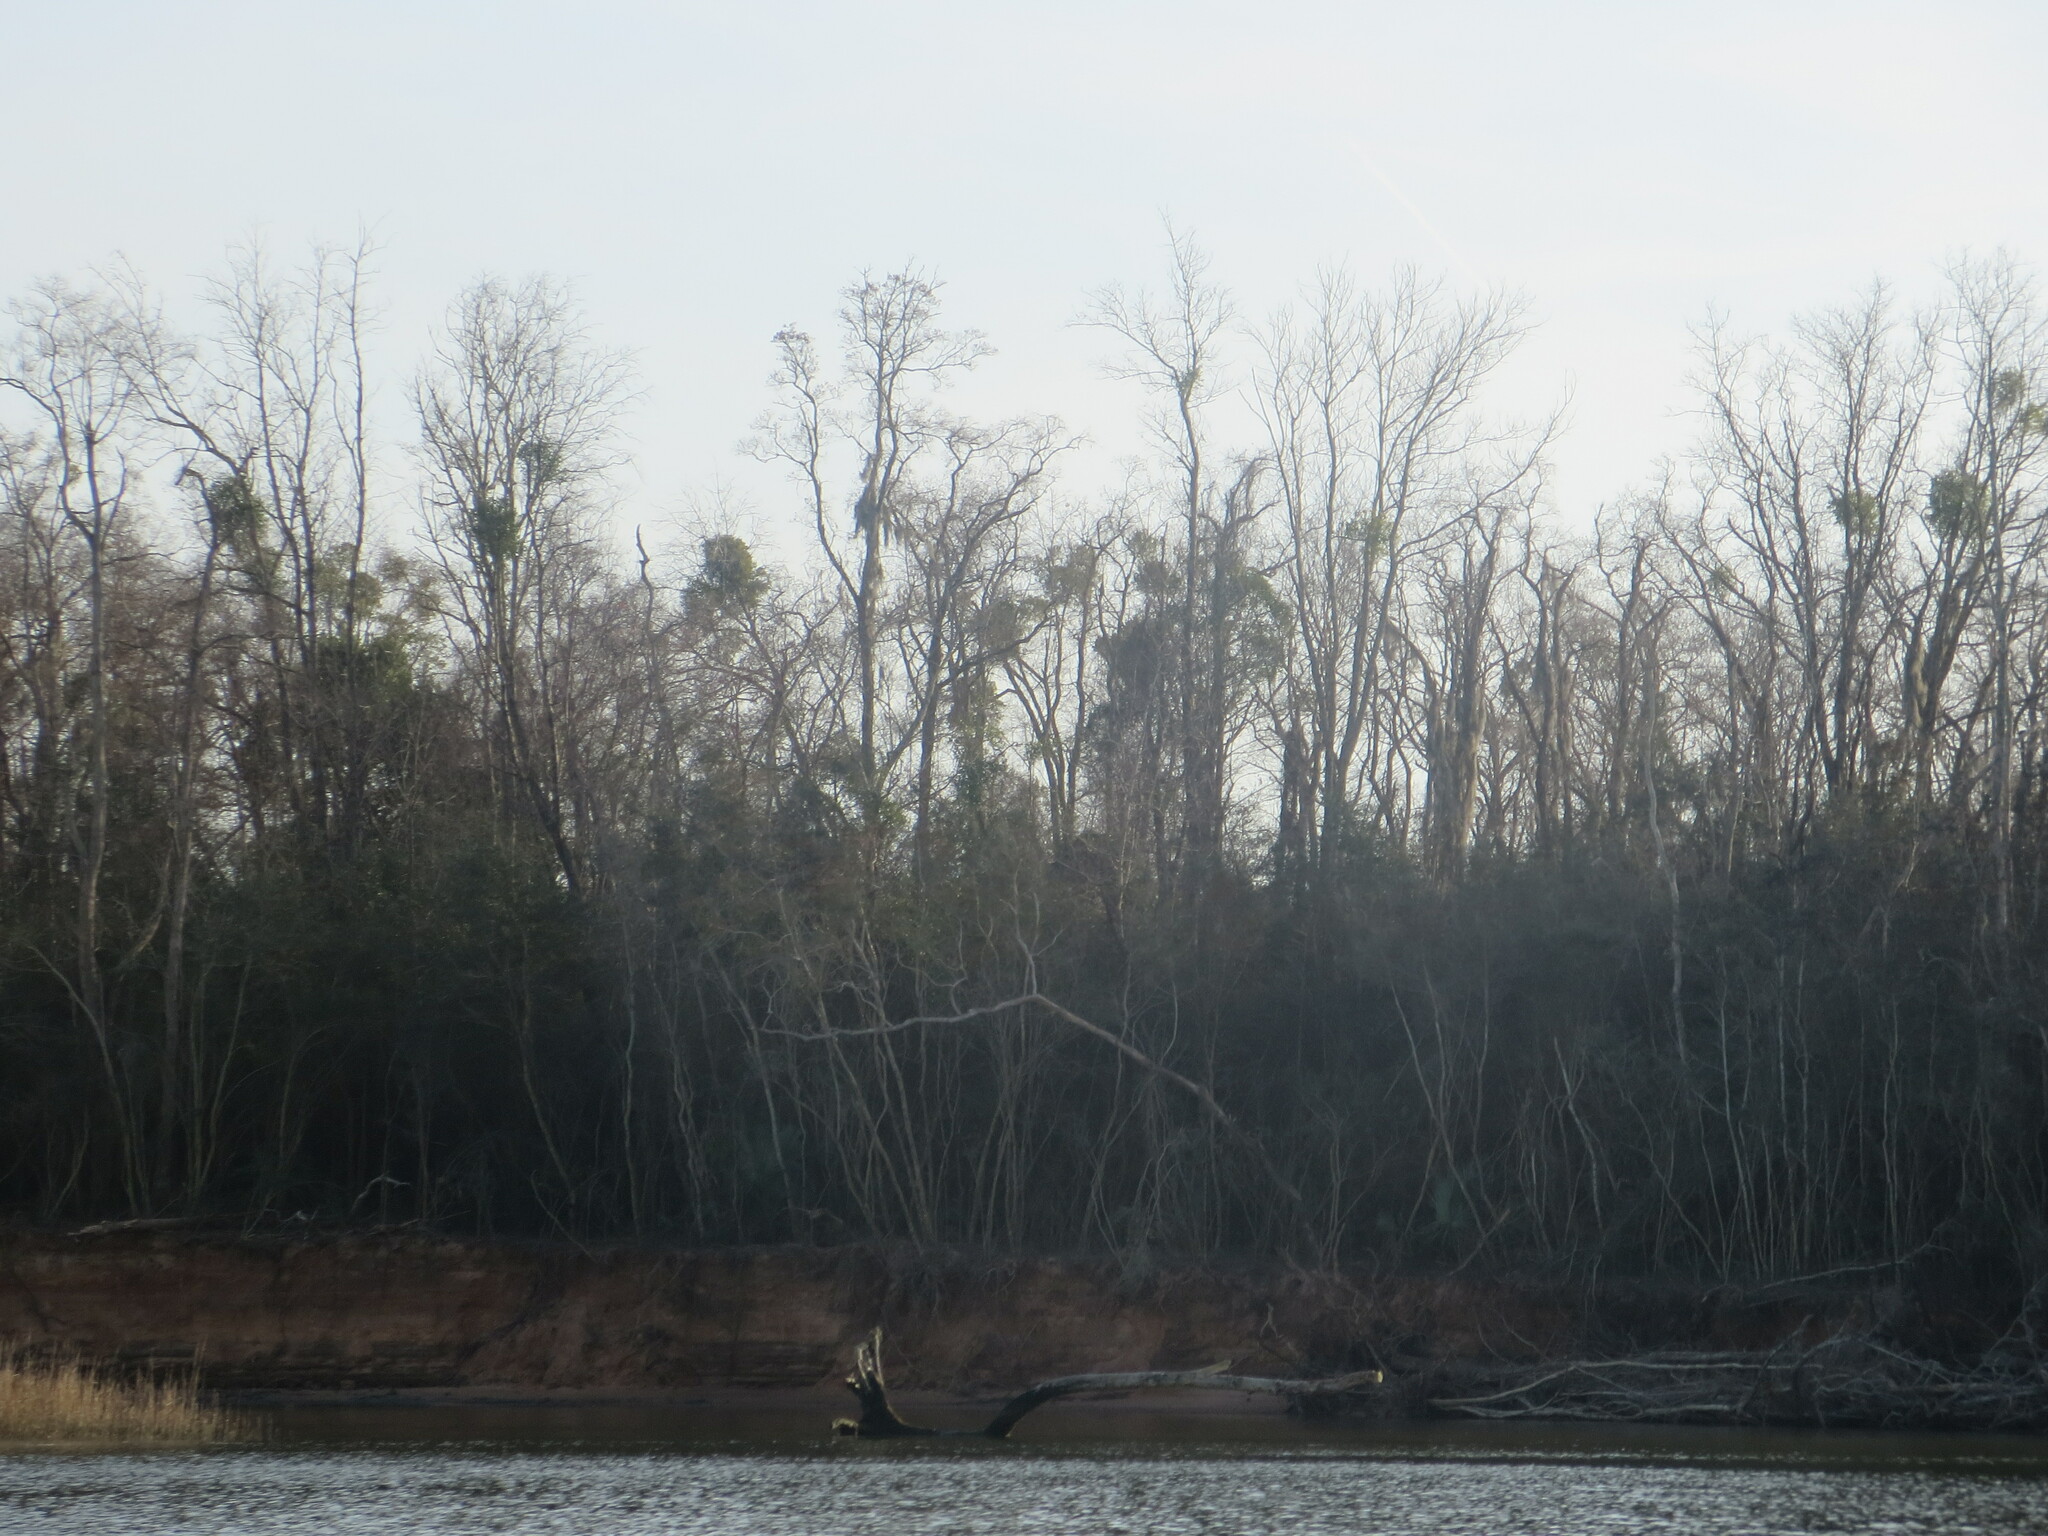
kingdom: Plantae
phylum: Tracheophyta
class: Magnoliopsida
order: Santalales
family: Viscaceae
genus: Phoradendron
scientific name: Phoradendron leucarpum
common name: Pacific mistletoe
